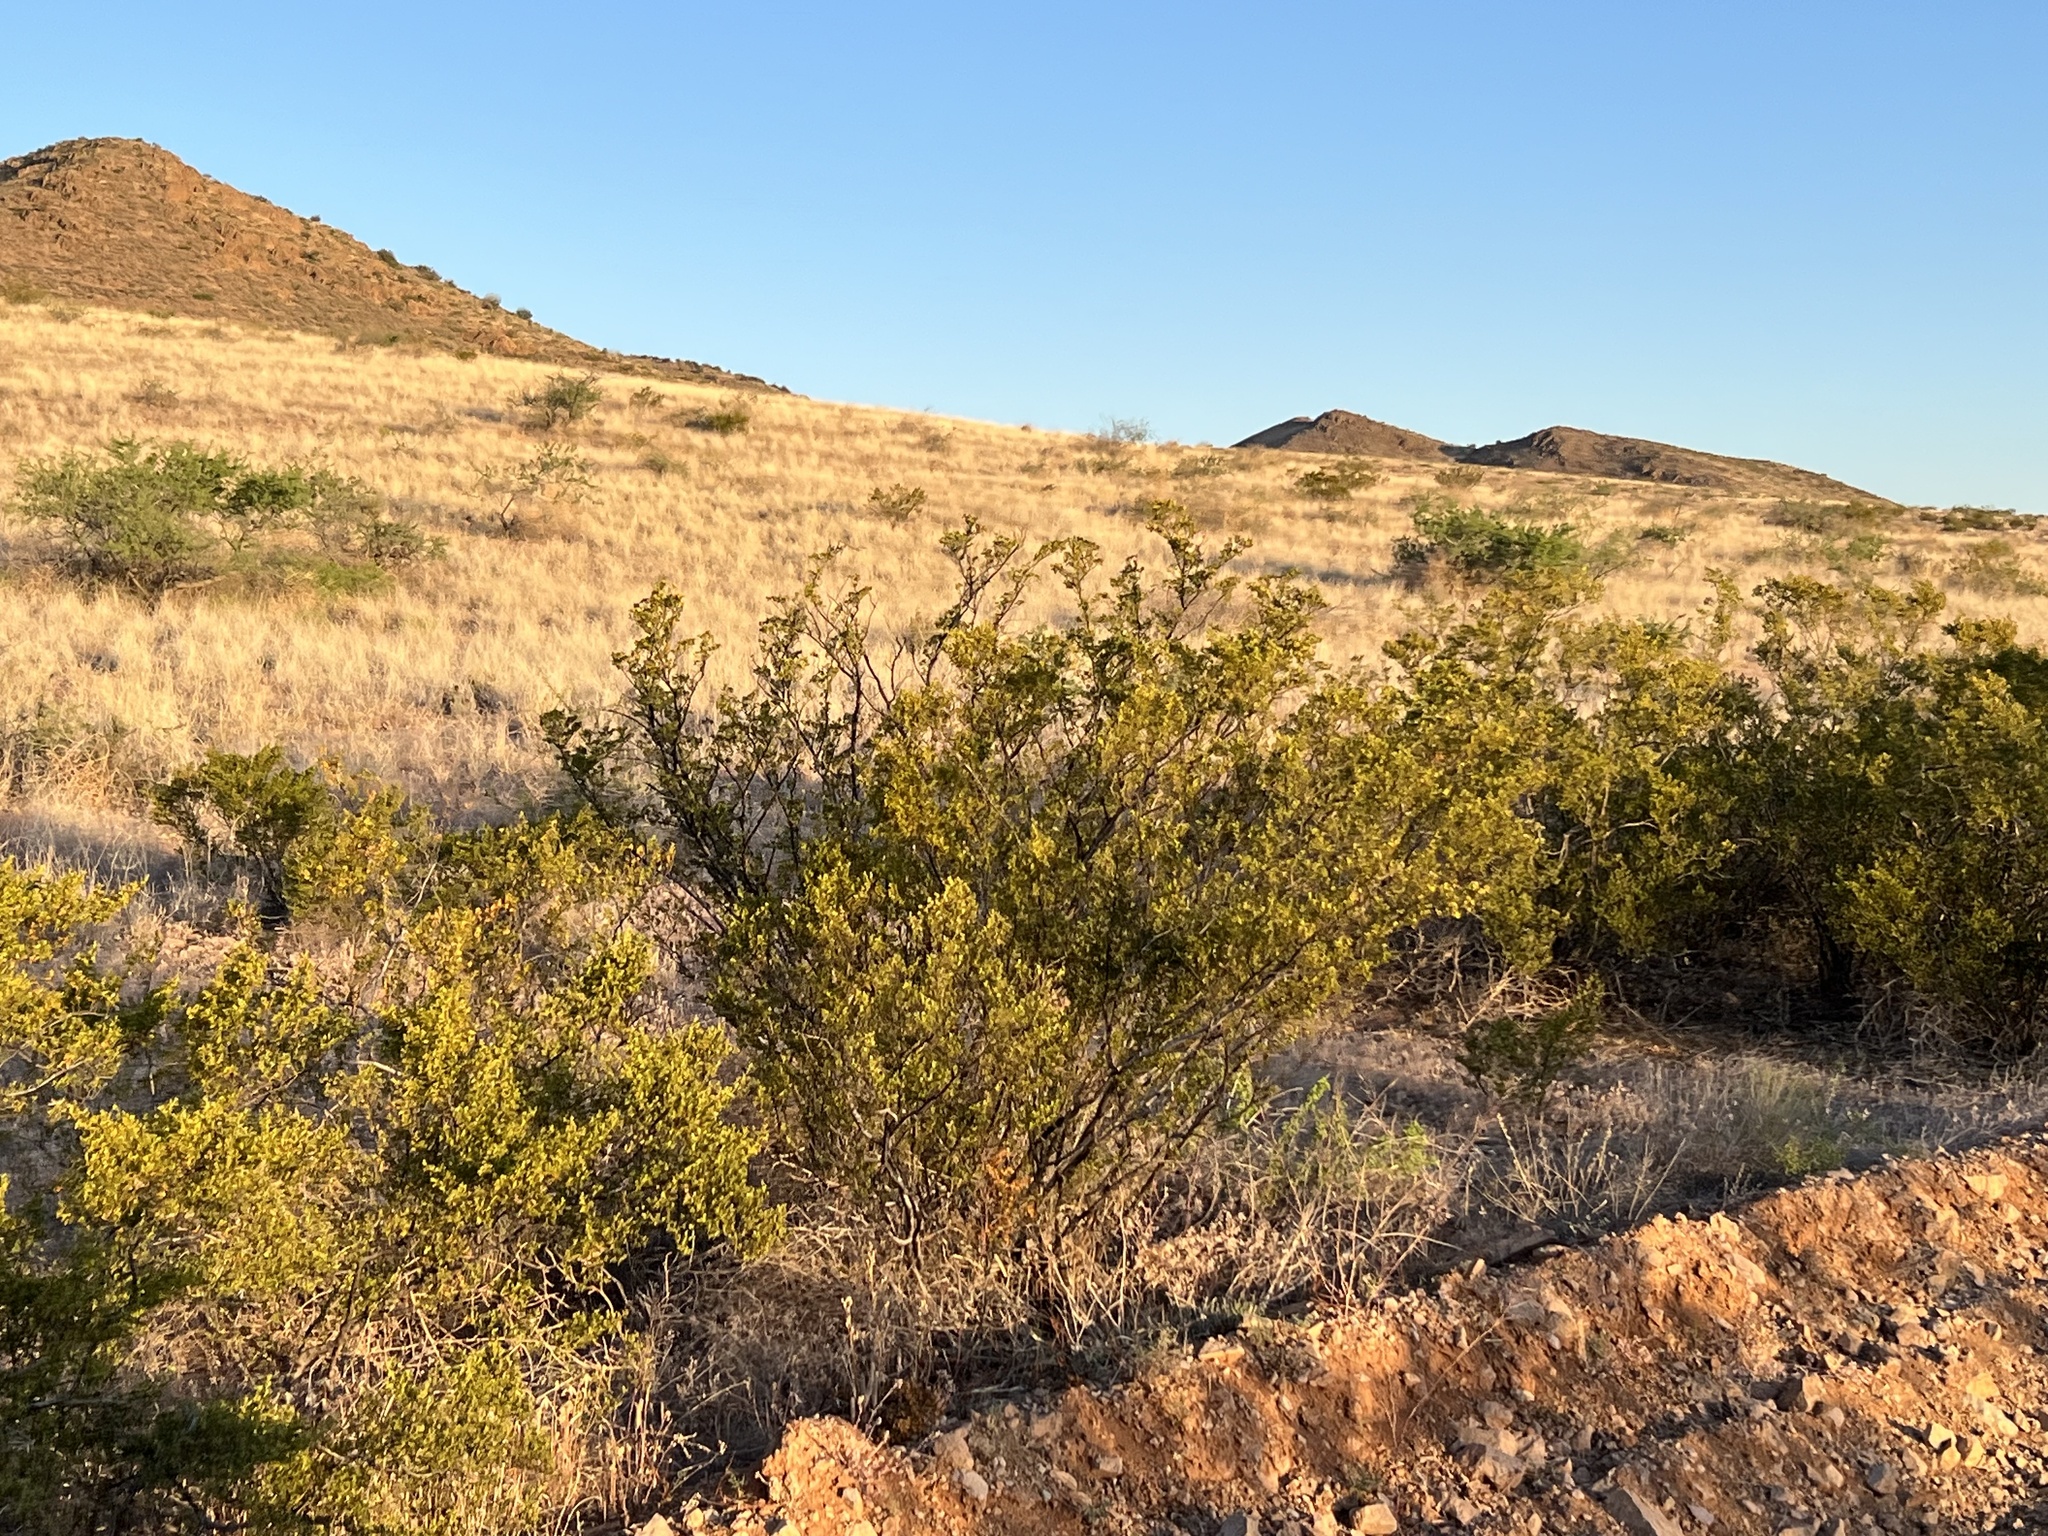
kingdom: Plantae
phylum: Tracheophyta
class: Magnoliopsida
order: Zygophyllales
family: Zygophyllaceae
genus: Larrea
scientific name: Larrea tridentata
